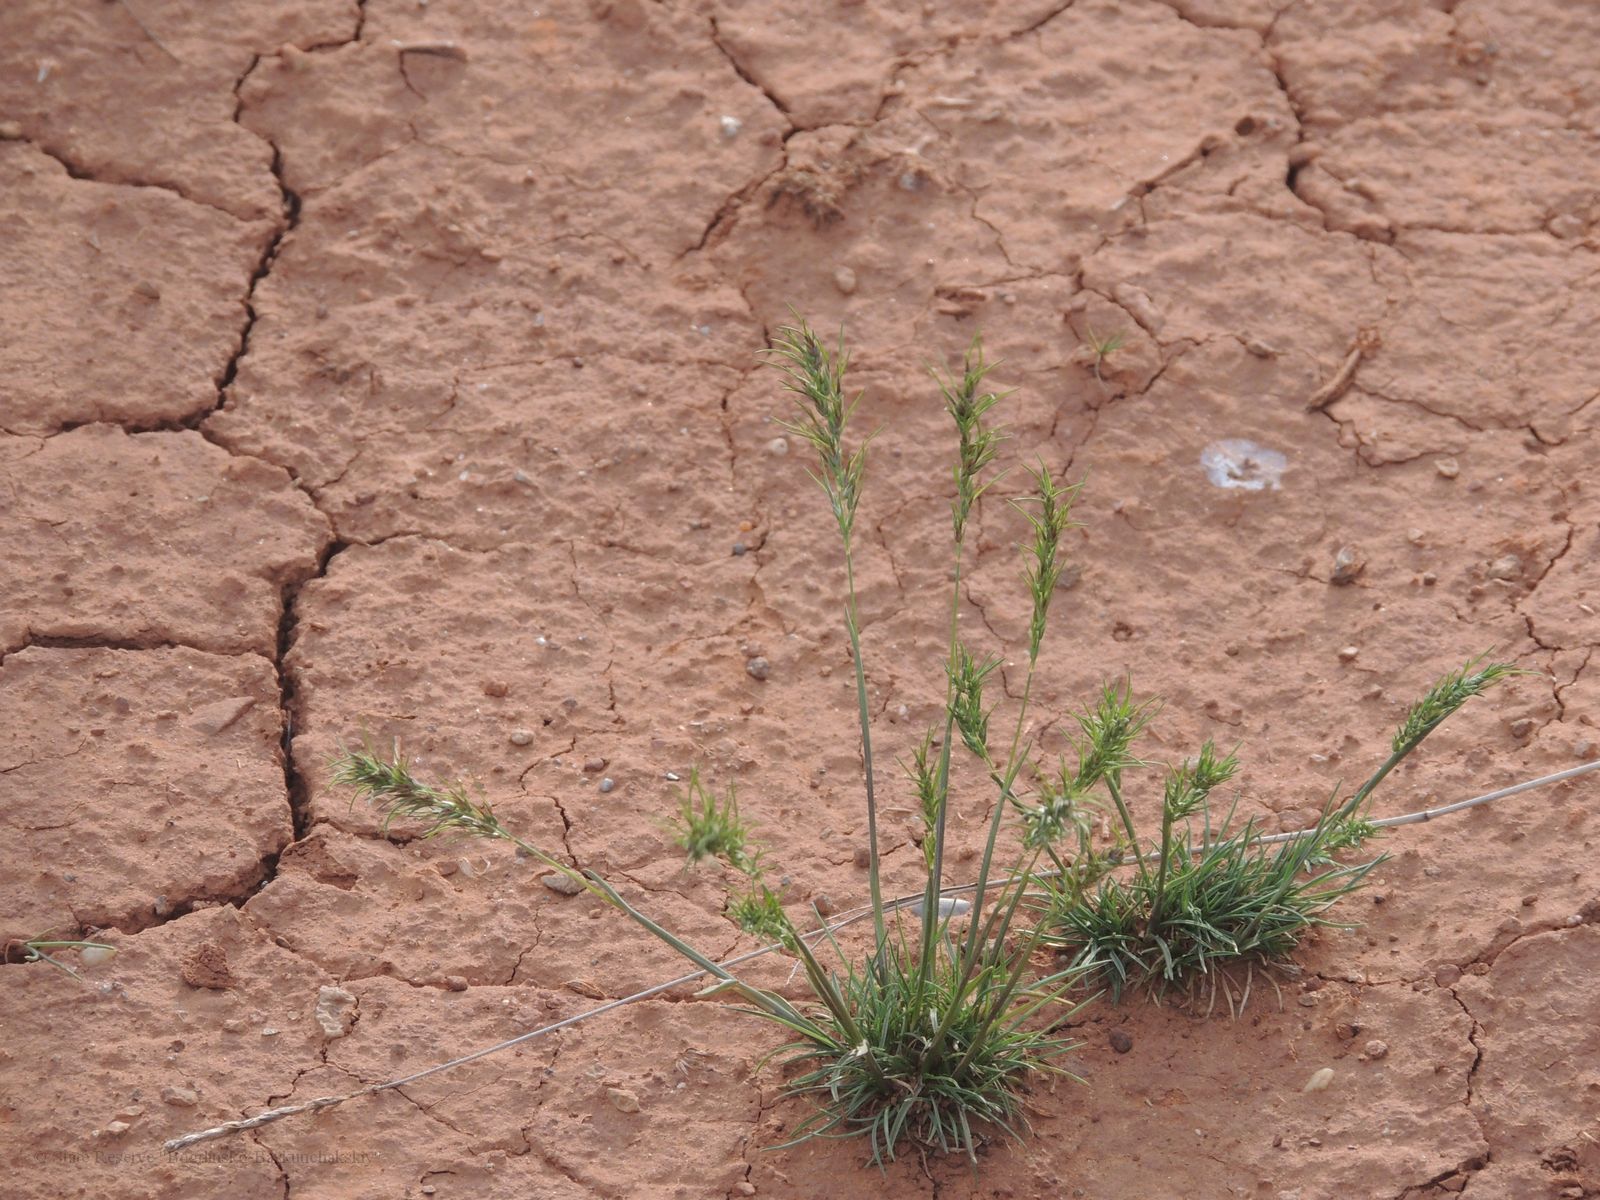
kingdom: Plantae
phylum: Tracheophyta
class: Liliopsida
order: Poales
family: Poaceae
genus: Poa
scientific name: Poa bulbosa
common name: Bulbous bluegrass
